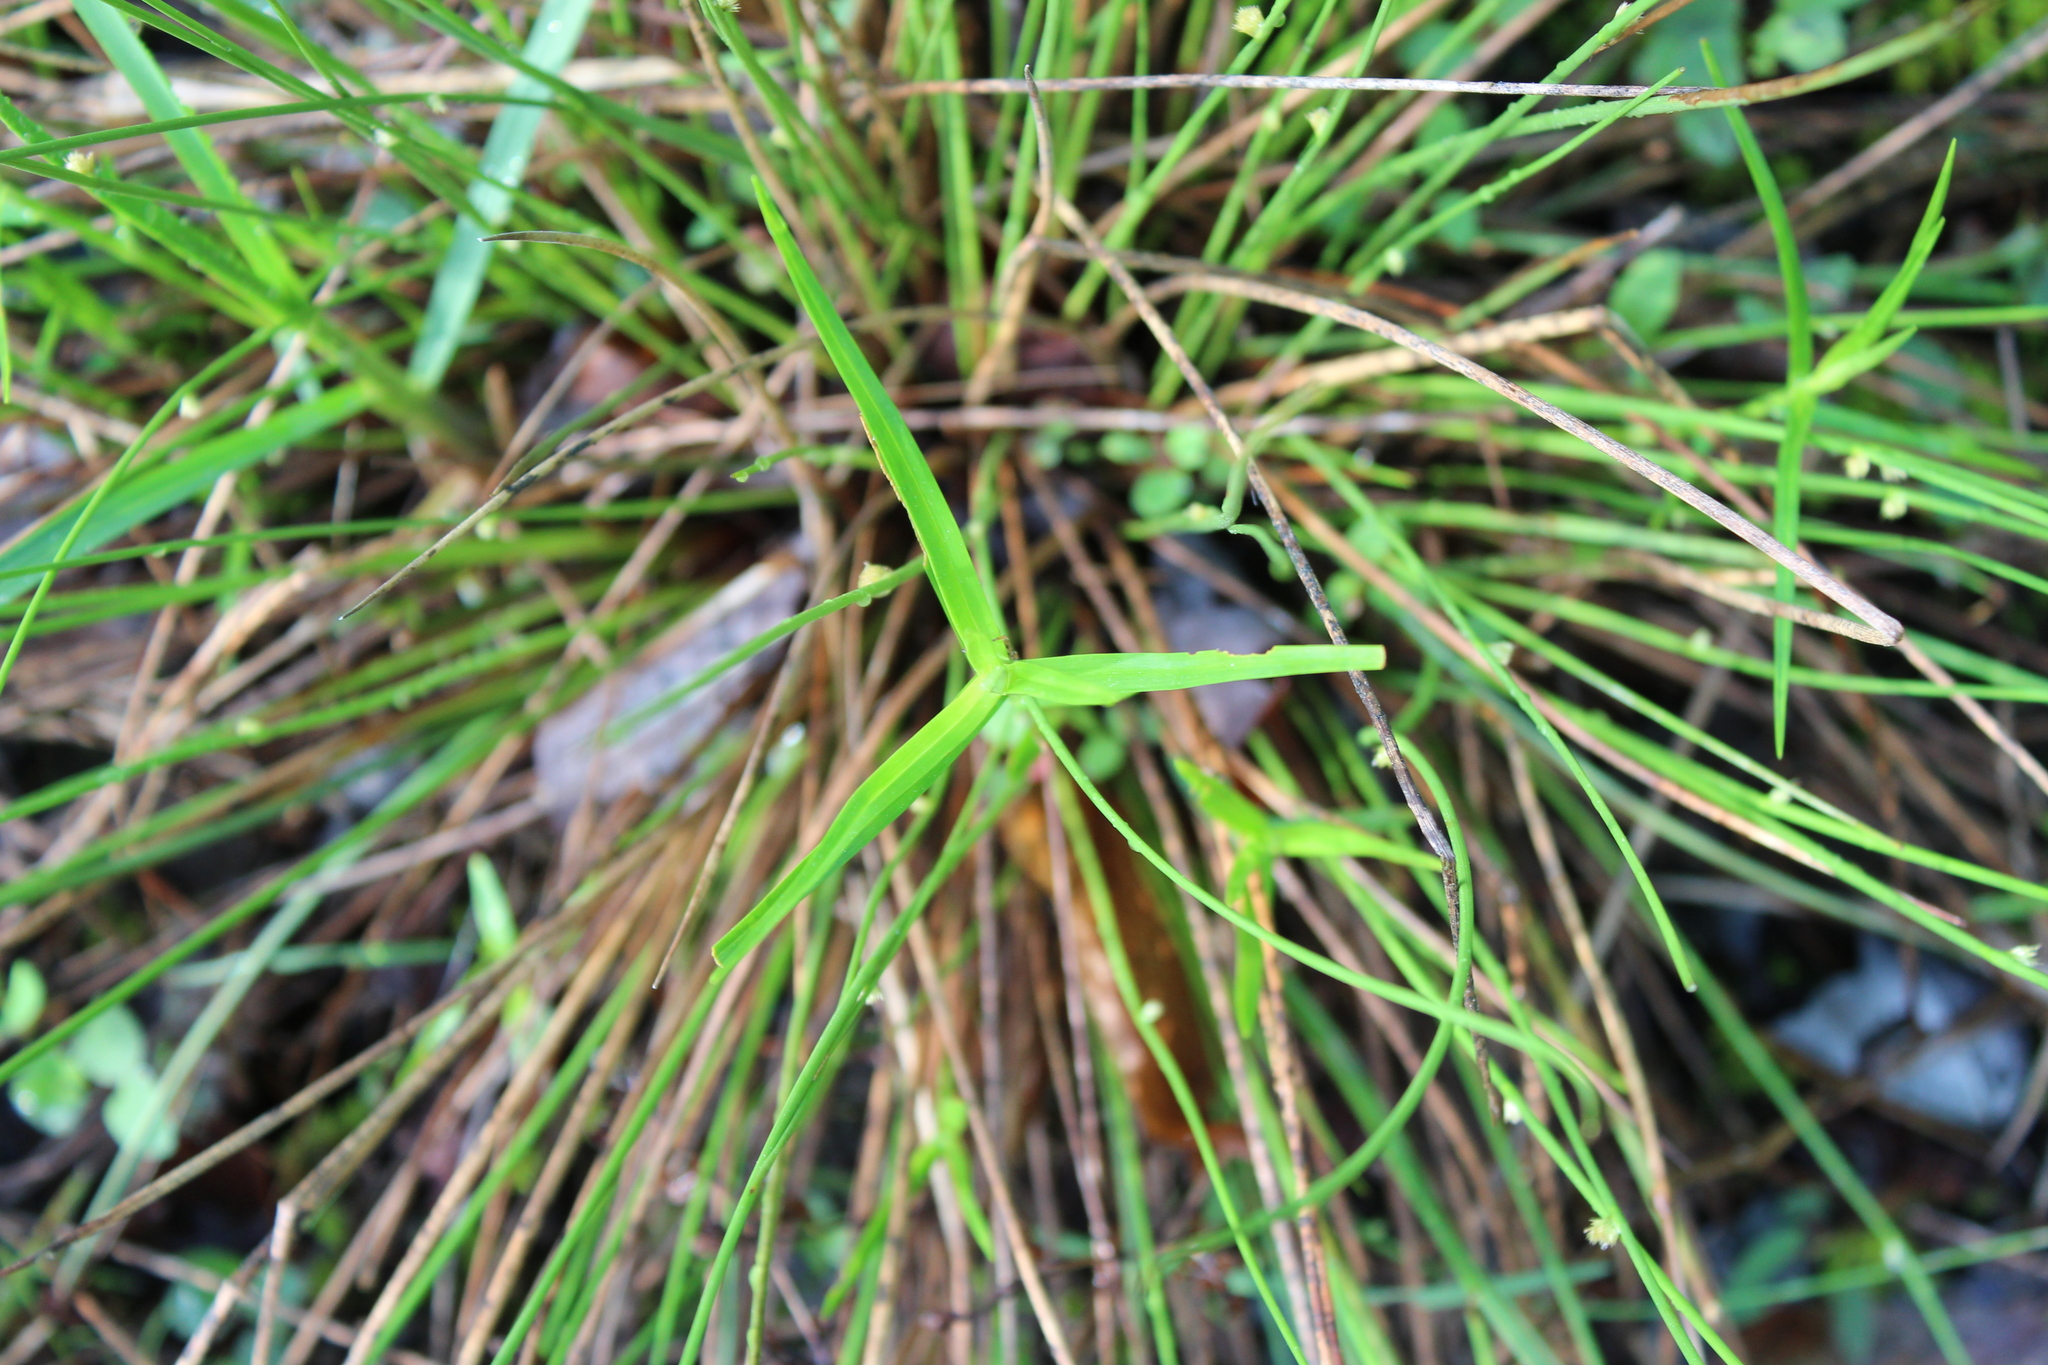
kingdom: Plantae
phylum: Tracheophyta
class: Liliopsida
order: Poales
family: Cyperaceae
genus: Dulichium
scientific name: Dulichium arundinaceum
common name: Three-way sedge
